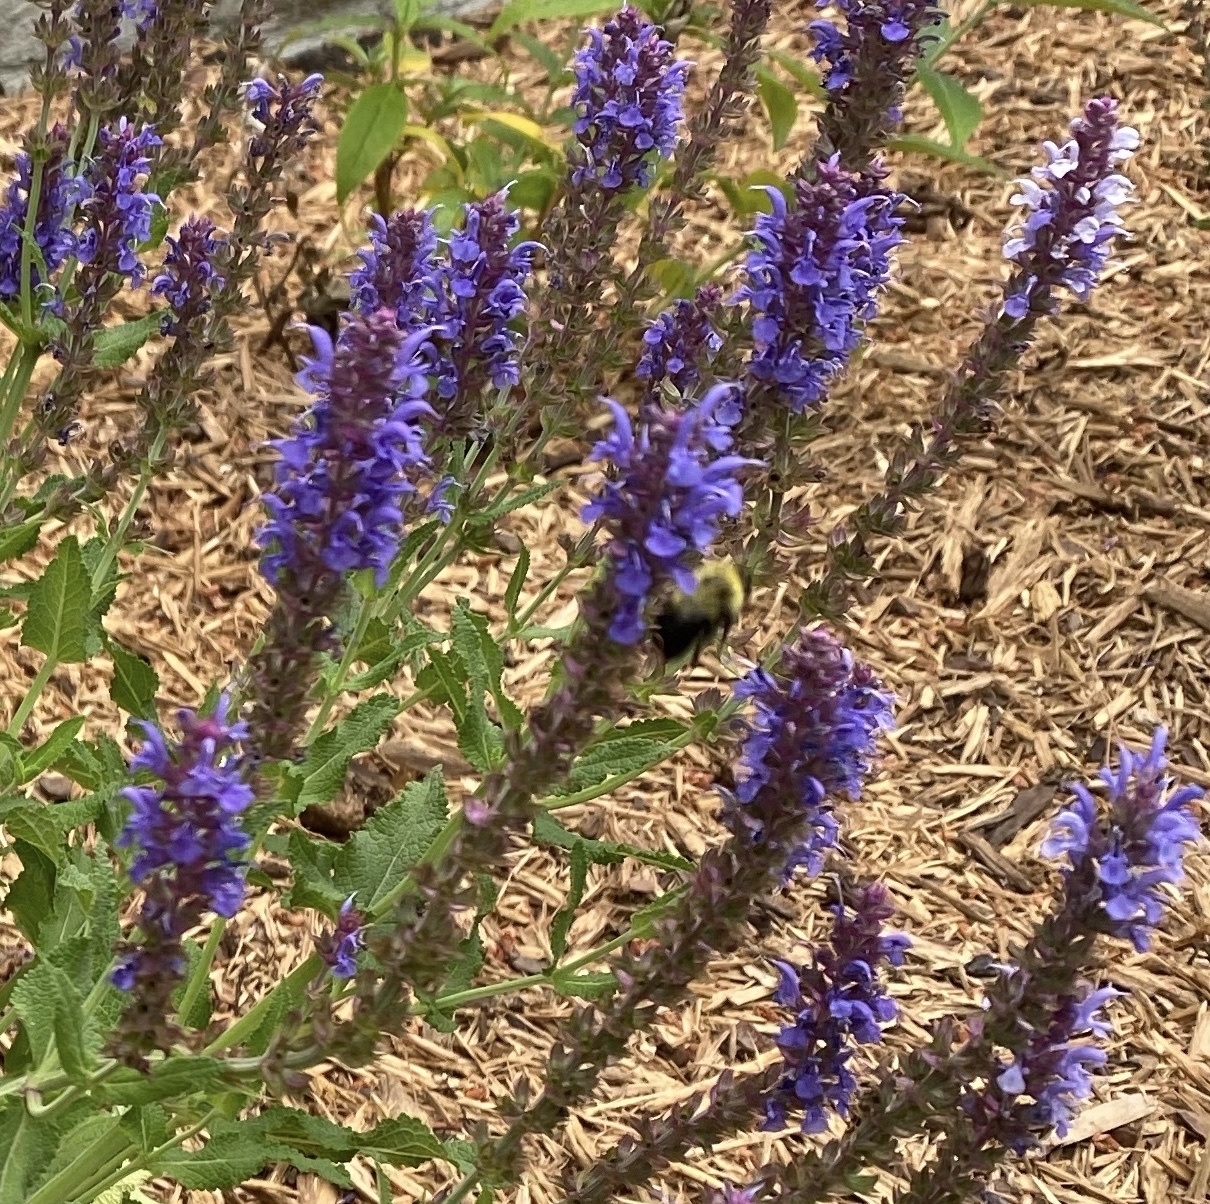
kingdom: Animalia
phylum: Arthropoda
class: Insecta
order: Hymenoptera
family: Apidae
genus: Bombus
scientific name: Bombus bimaculatus
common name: Two-spotted bumble bee
